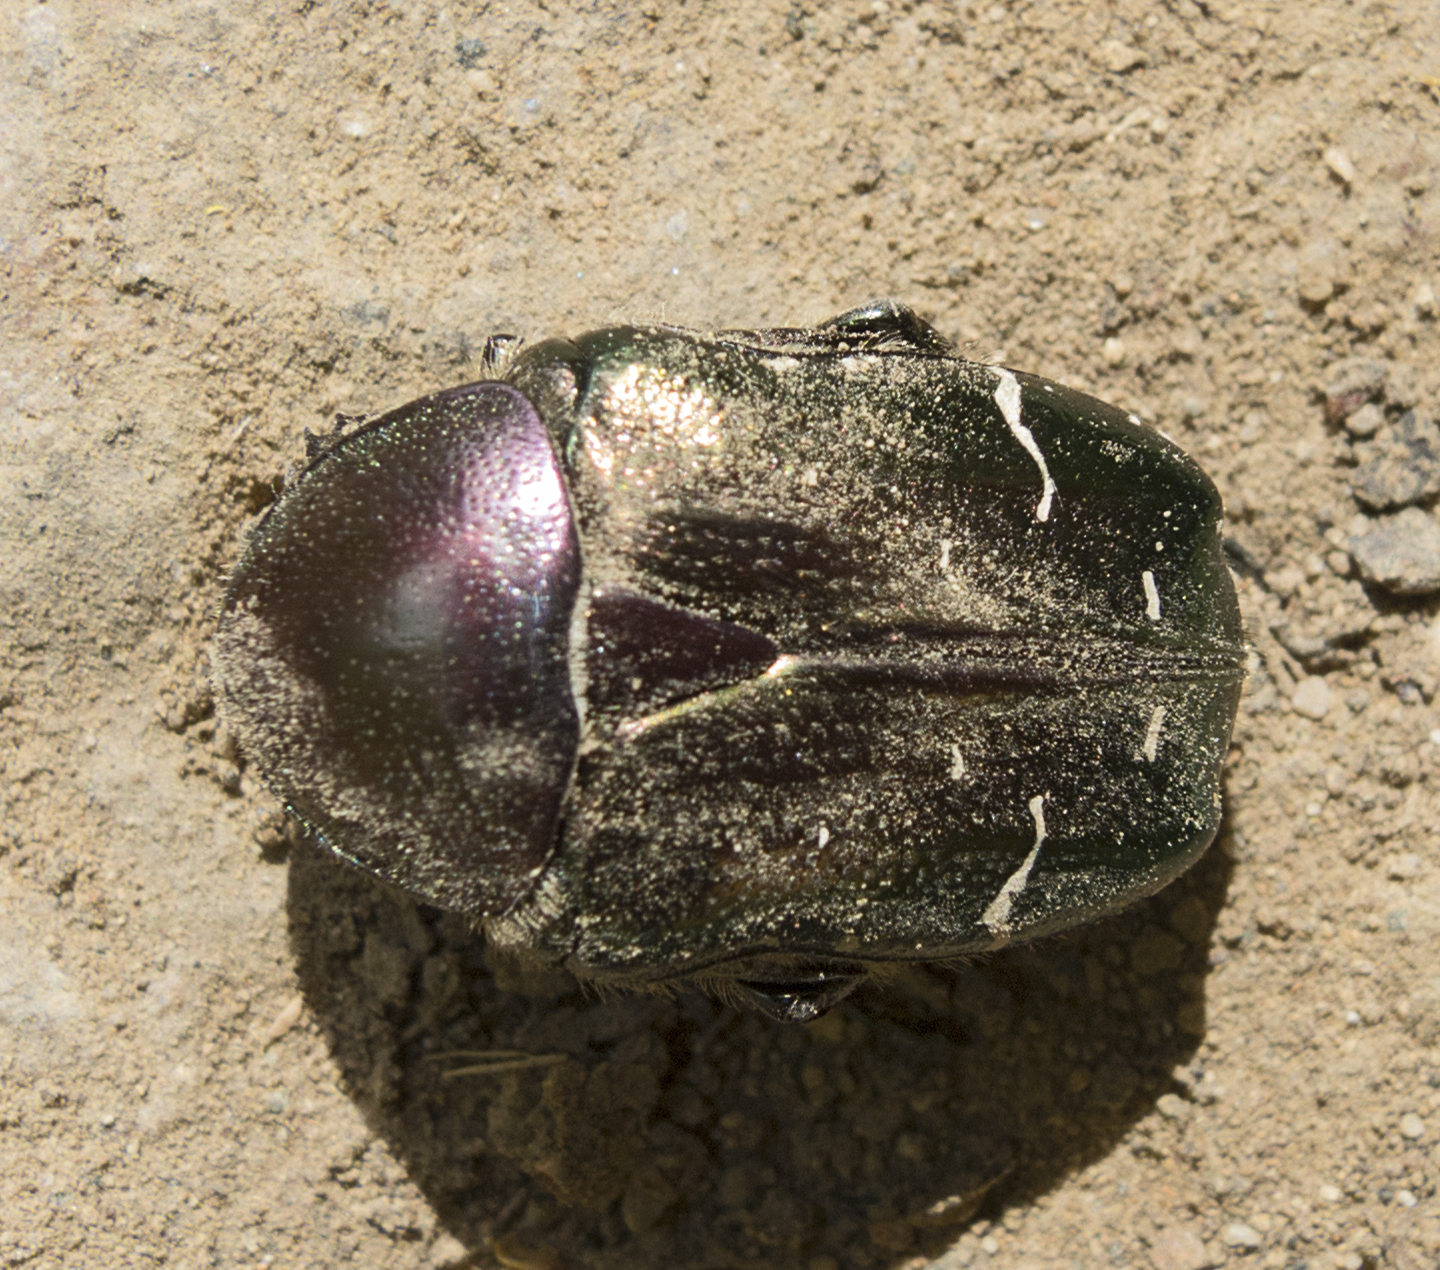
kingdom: Animalia
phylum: Arthropoda
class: Insecta
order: Coleoptera
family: Scarabaeidae
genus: Cetonia
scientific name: Cetonia aurata
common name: Rose chafer
